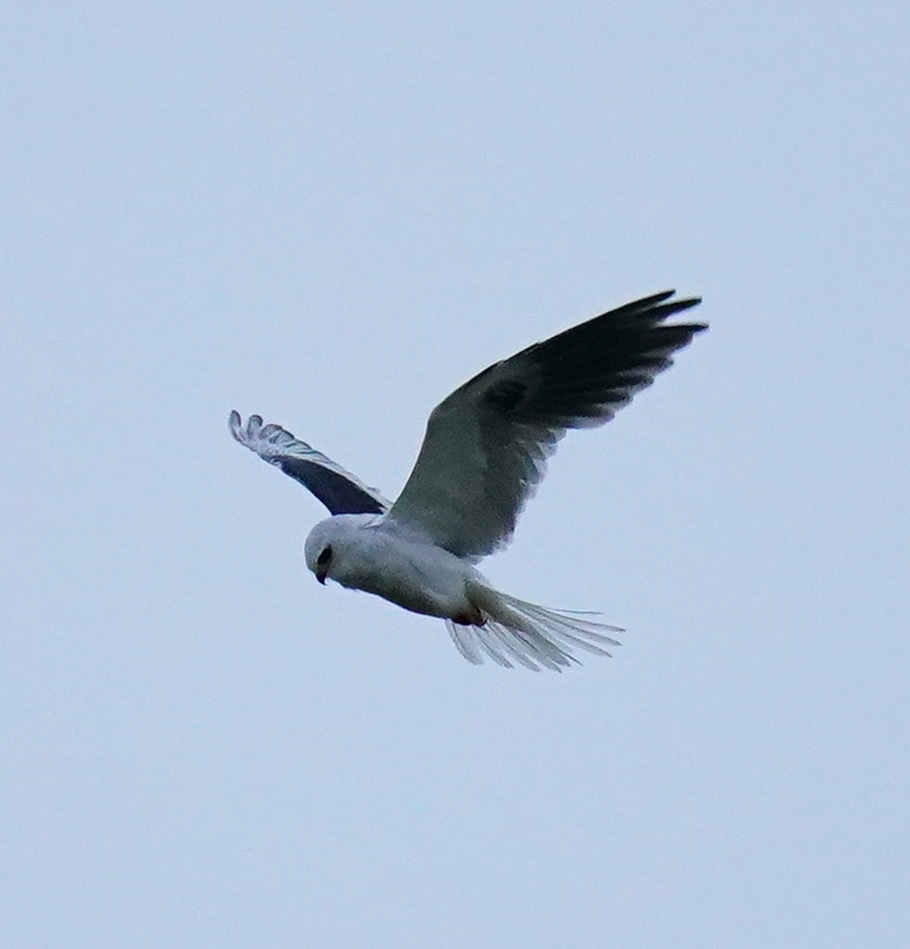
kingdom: Animalia
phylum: Chordata
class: Aves
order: Accipitriformes
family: Accipitridae
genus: Elanus
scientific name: Elanus leucurus
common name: White-tailed kite
